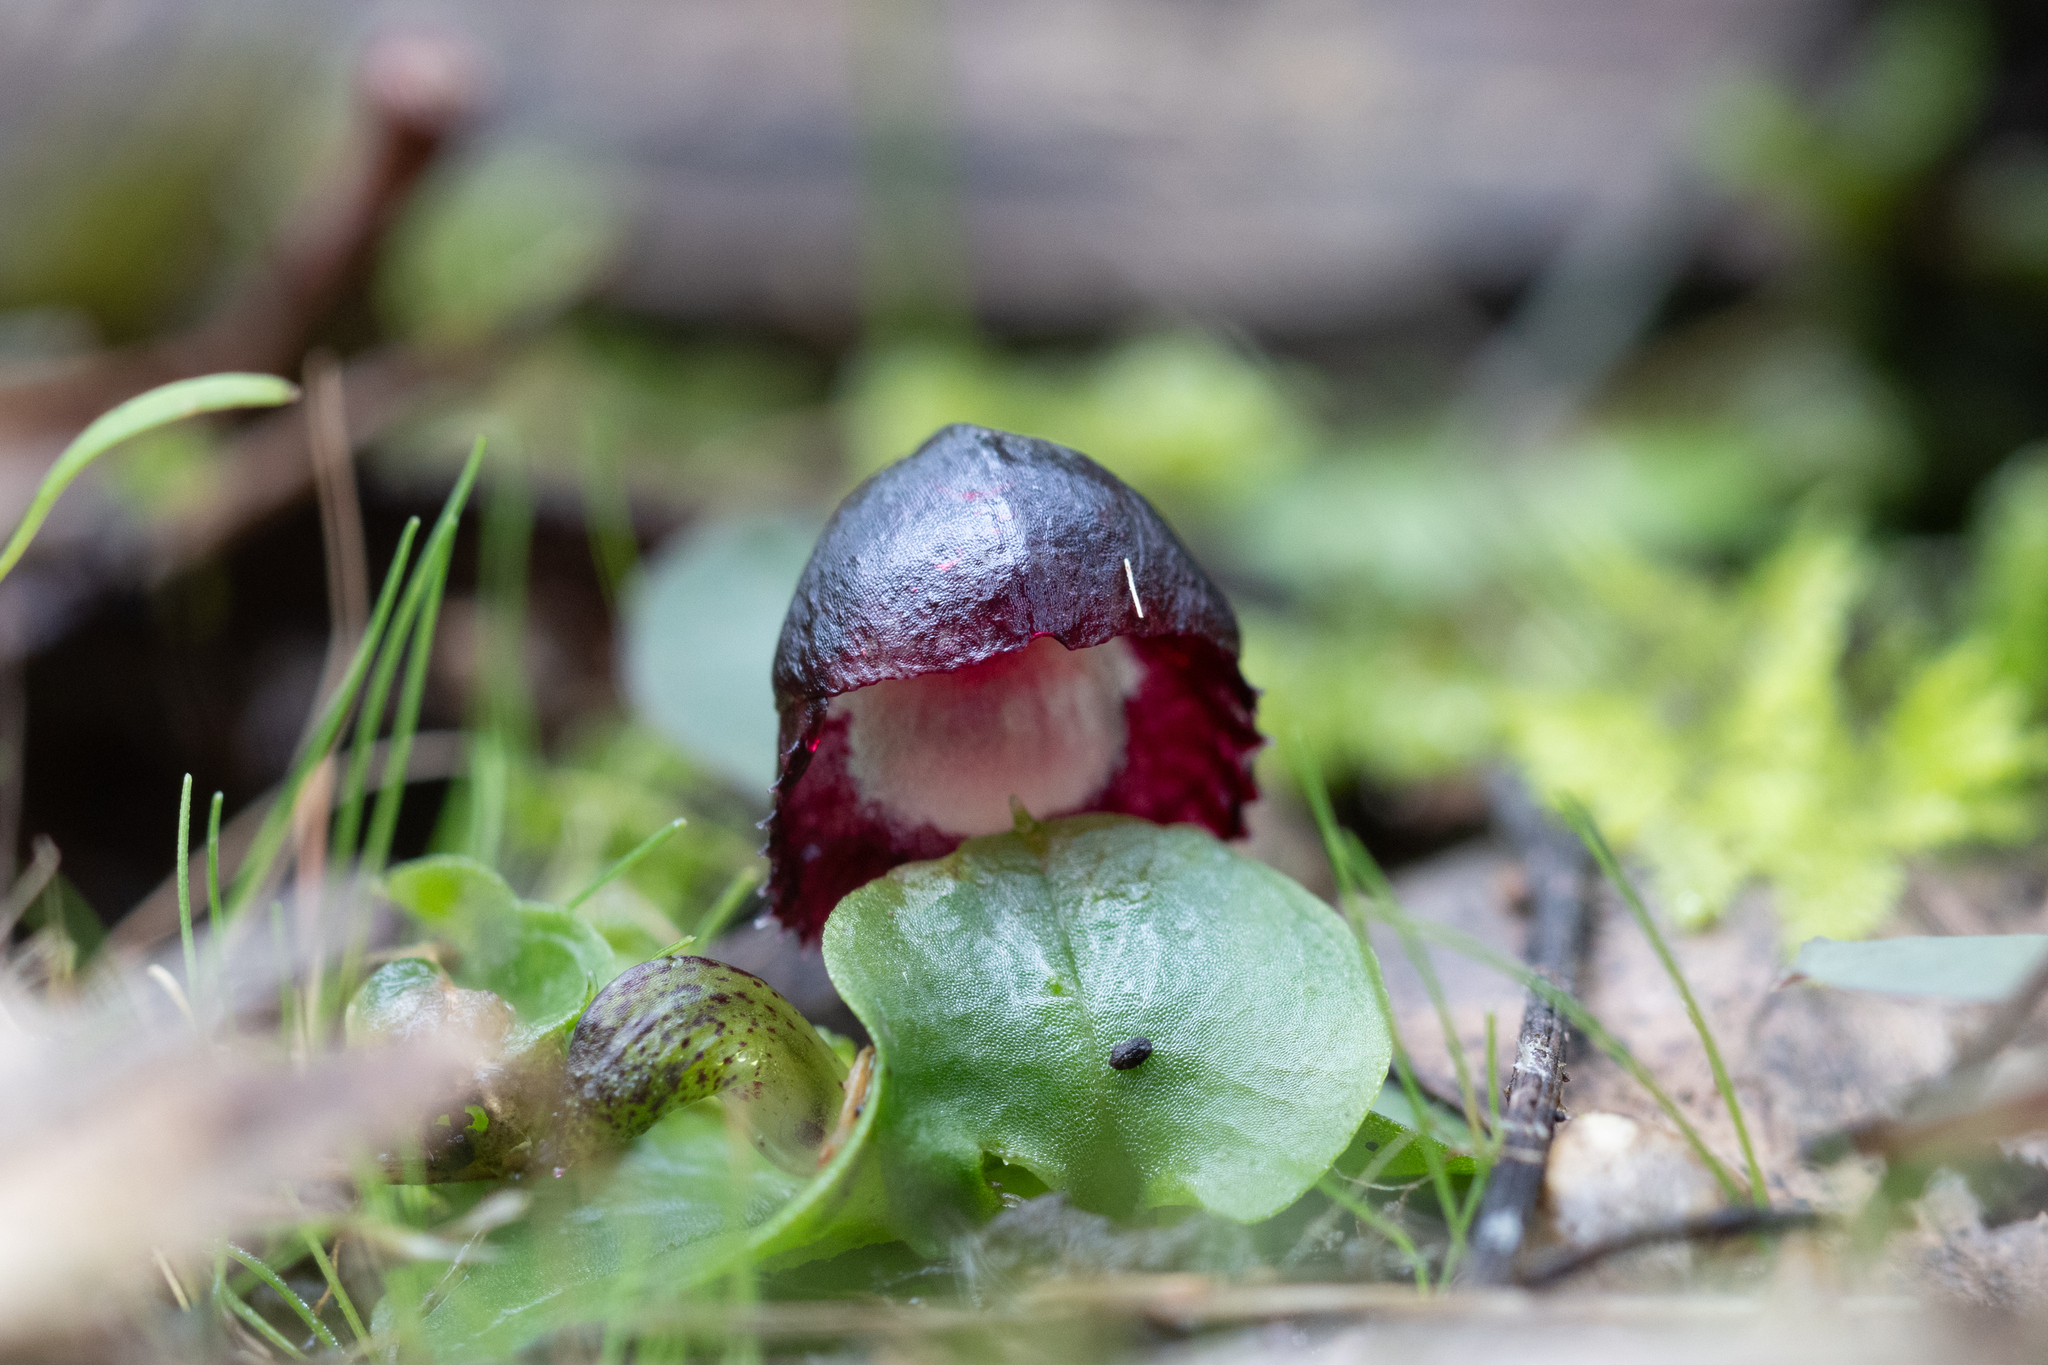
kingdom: Plantae
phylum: Tracheophyta
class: Liliopsida
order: Asparagales
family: Orchidaceae
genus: Corybas
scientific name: Corybas diemenicus
